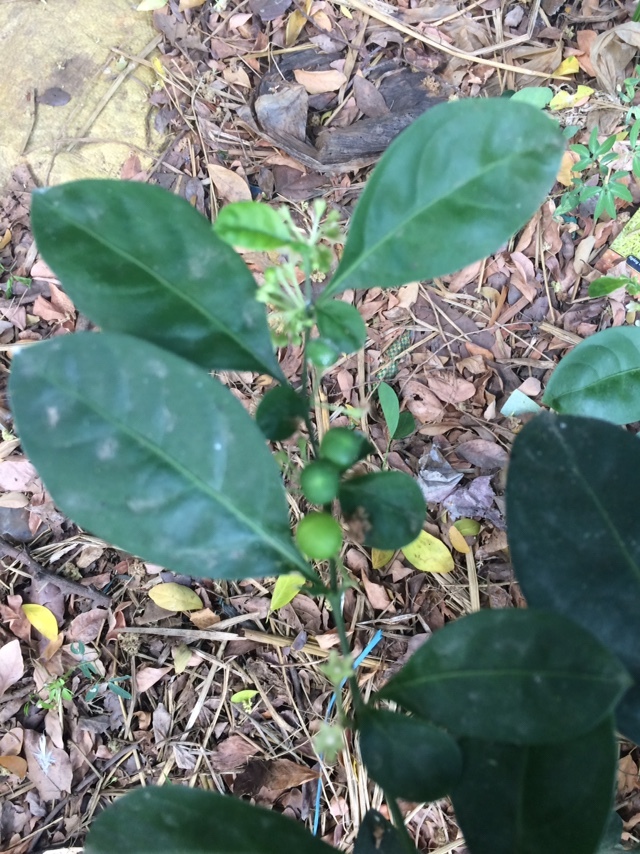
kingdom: Plantae
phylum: Tracheophyta
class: Magnoliopsida
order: Solanales
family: Solanaceae
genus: Solanum
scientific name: Solanum diphyllum
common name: Twoleaf nightshade
